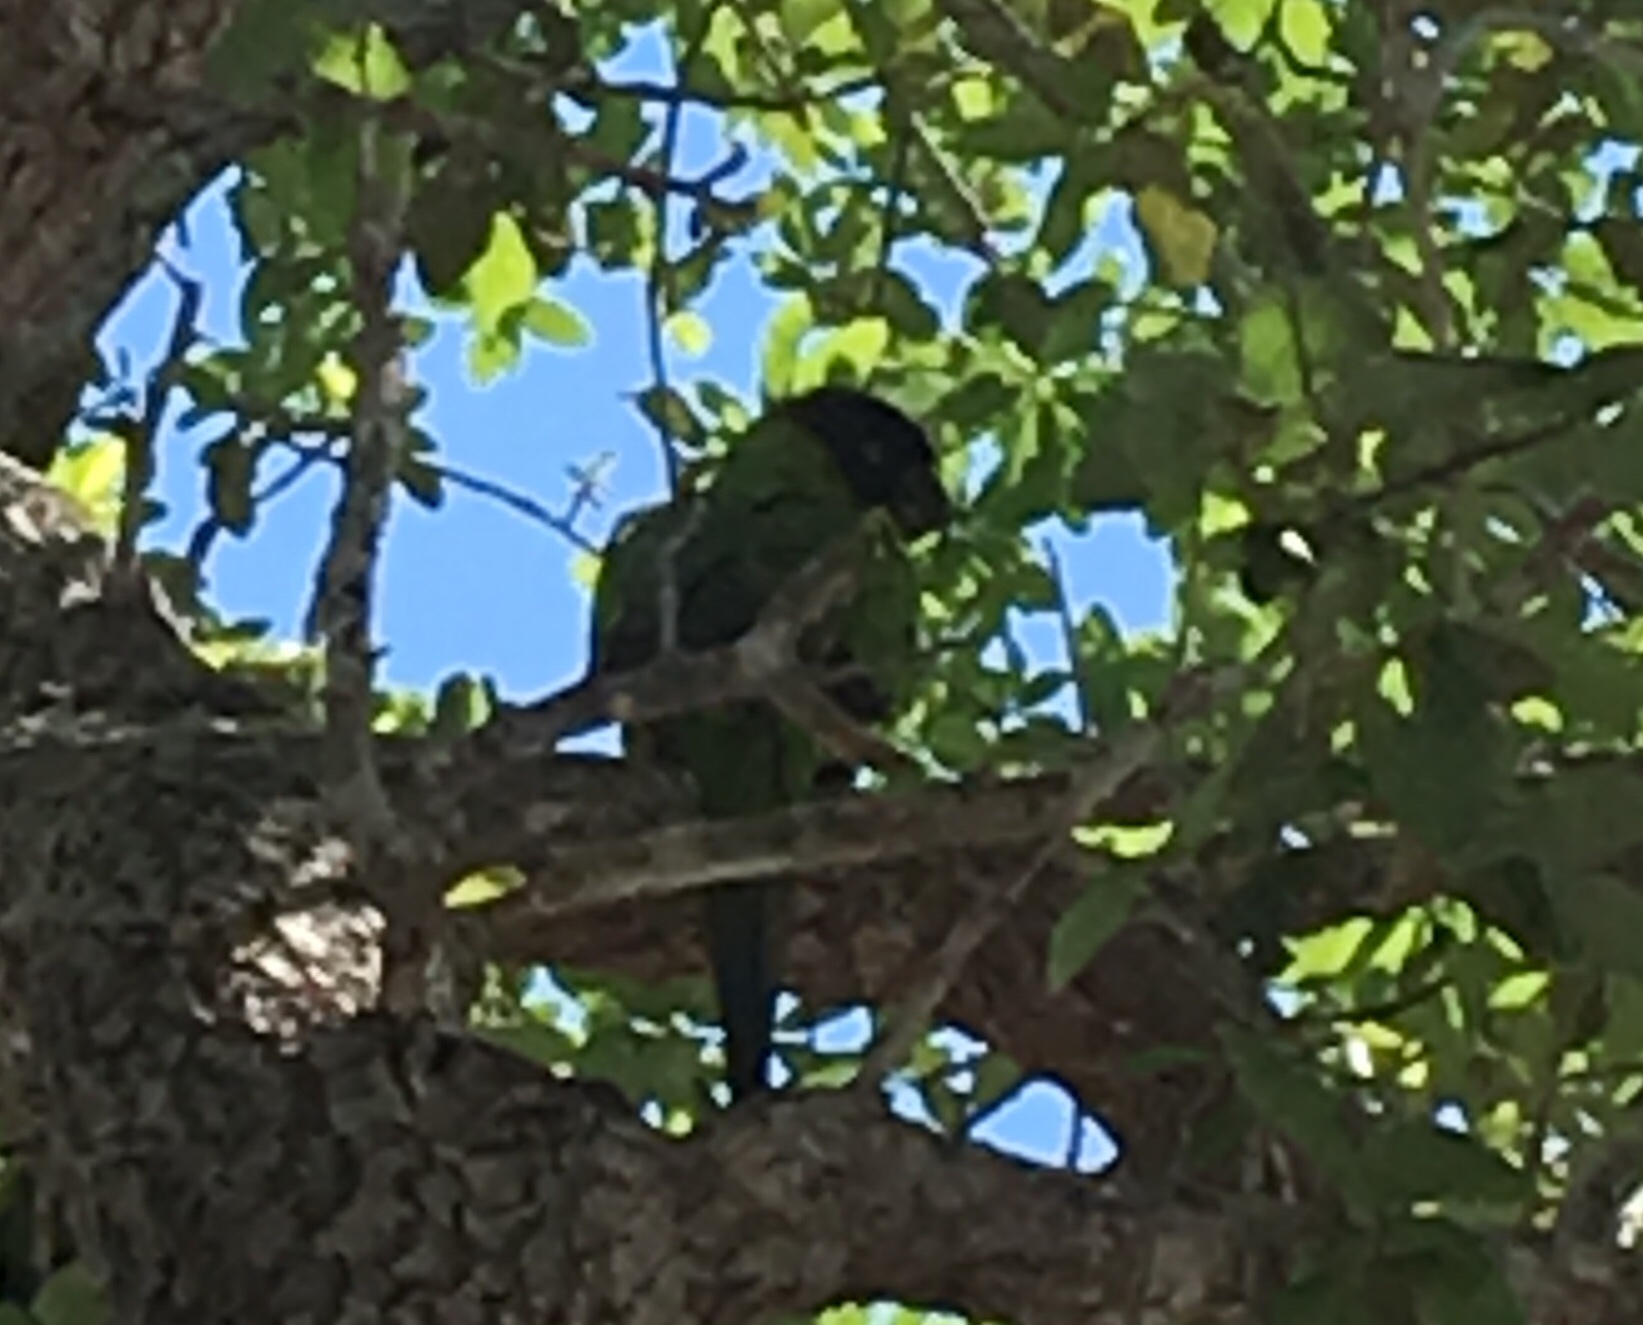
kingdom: Animalia
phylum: Chordata
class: Aves
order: Psittaciformes
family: Psittacidae
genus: Nandayus
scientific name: Nandayus nenday
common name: Nanday parakeet
